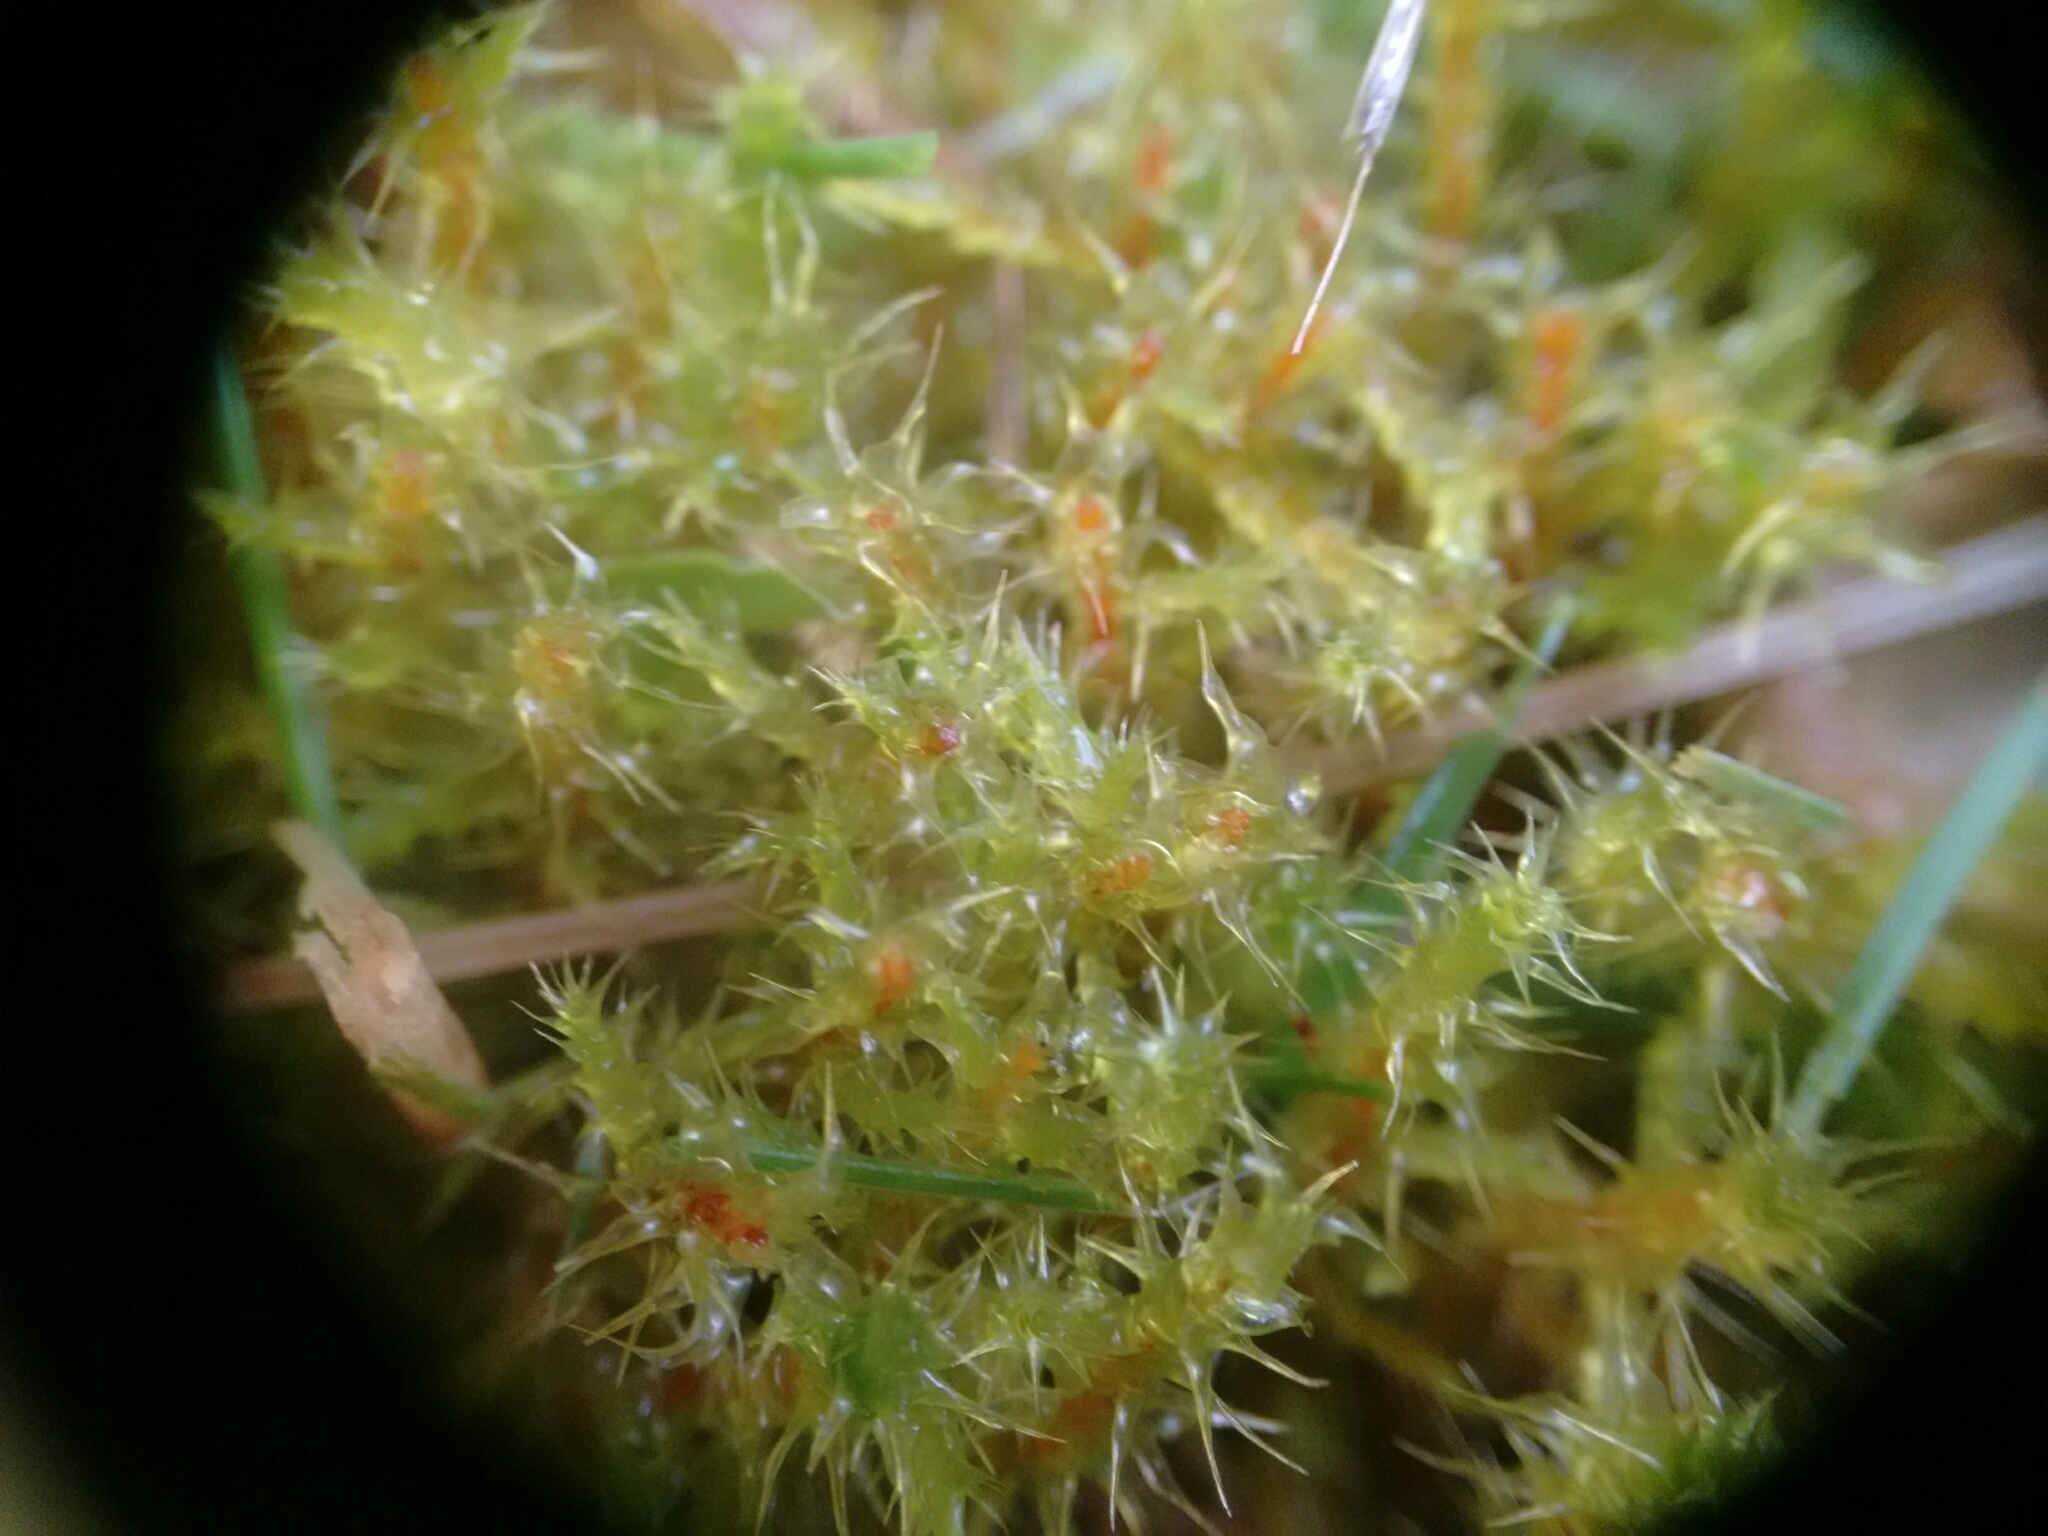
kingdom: Plantae
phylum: Bryophyta
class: Bryopsida
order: Hypnales
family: Hylocomiaceae
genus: Rhytidiadelphus
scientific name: Rhytidiadelphus squarrosus
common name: Springy turf-moss
